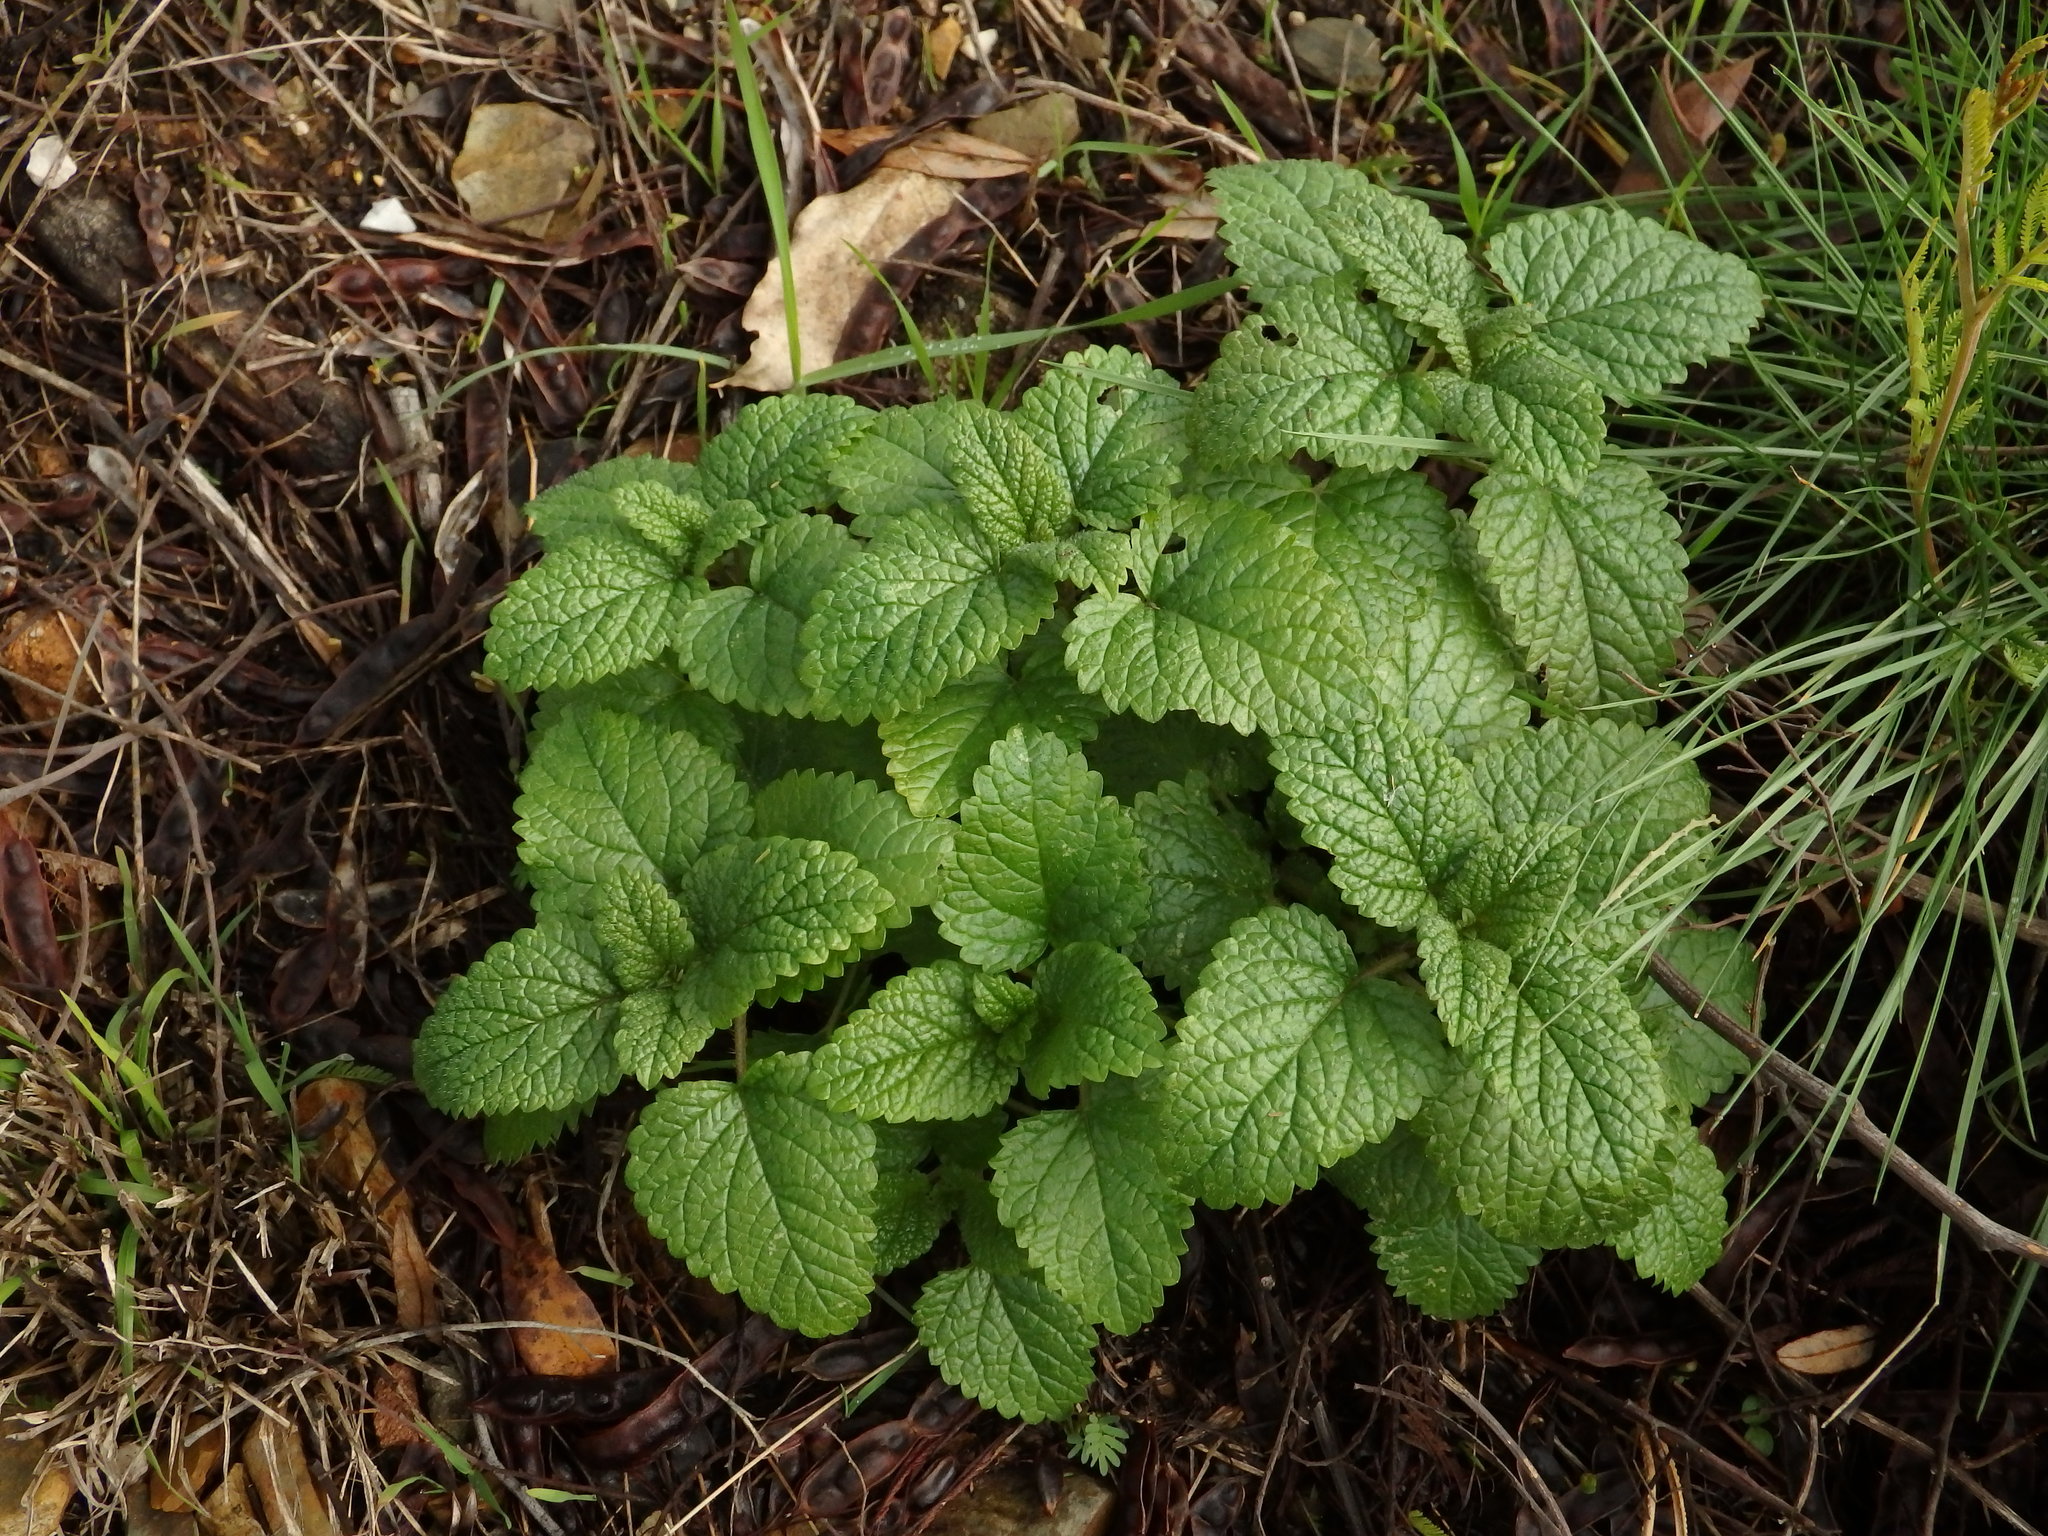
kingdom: Plantae
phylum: Tracheophyta
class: Magnoliopsida
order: Lamiales
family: Lamiaceae
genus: Melissa
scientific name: Melissa officinalis
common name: Balm
